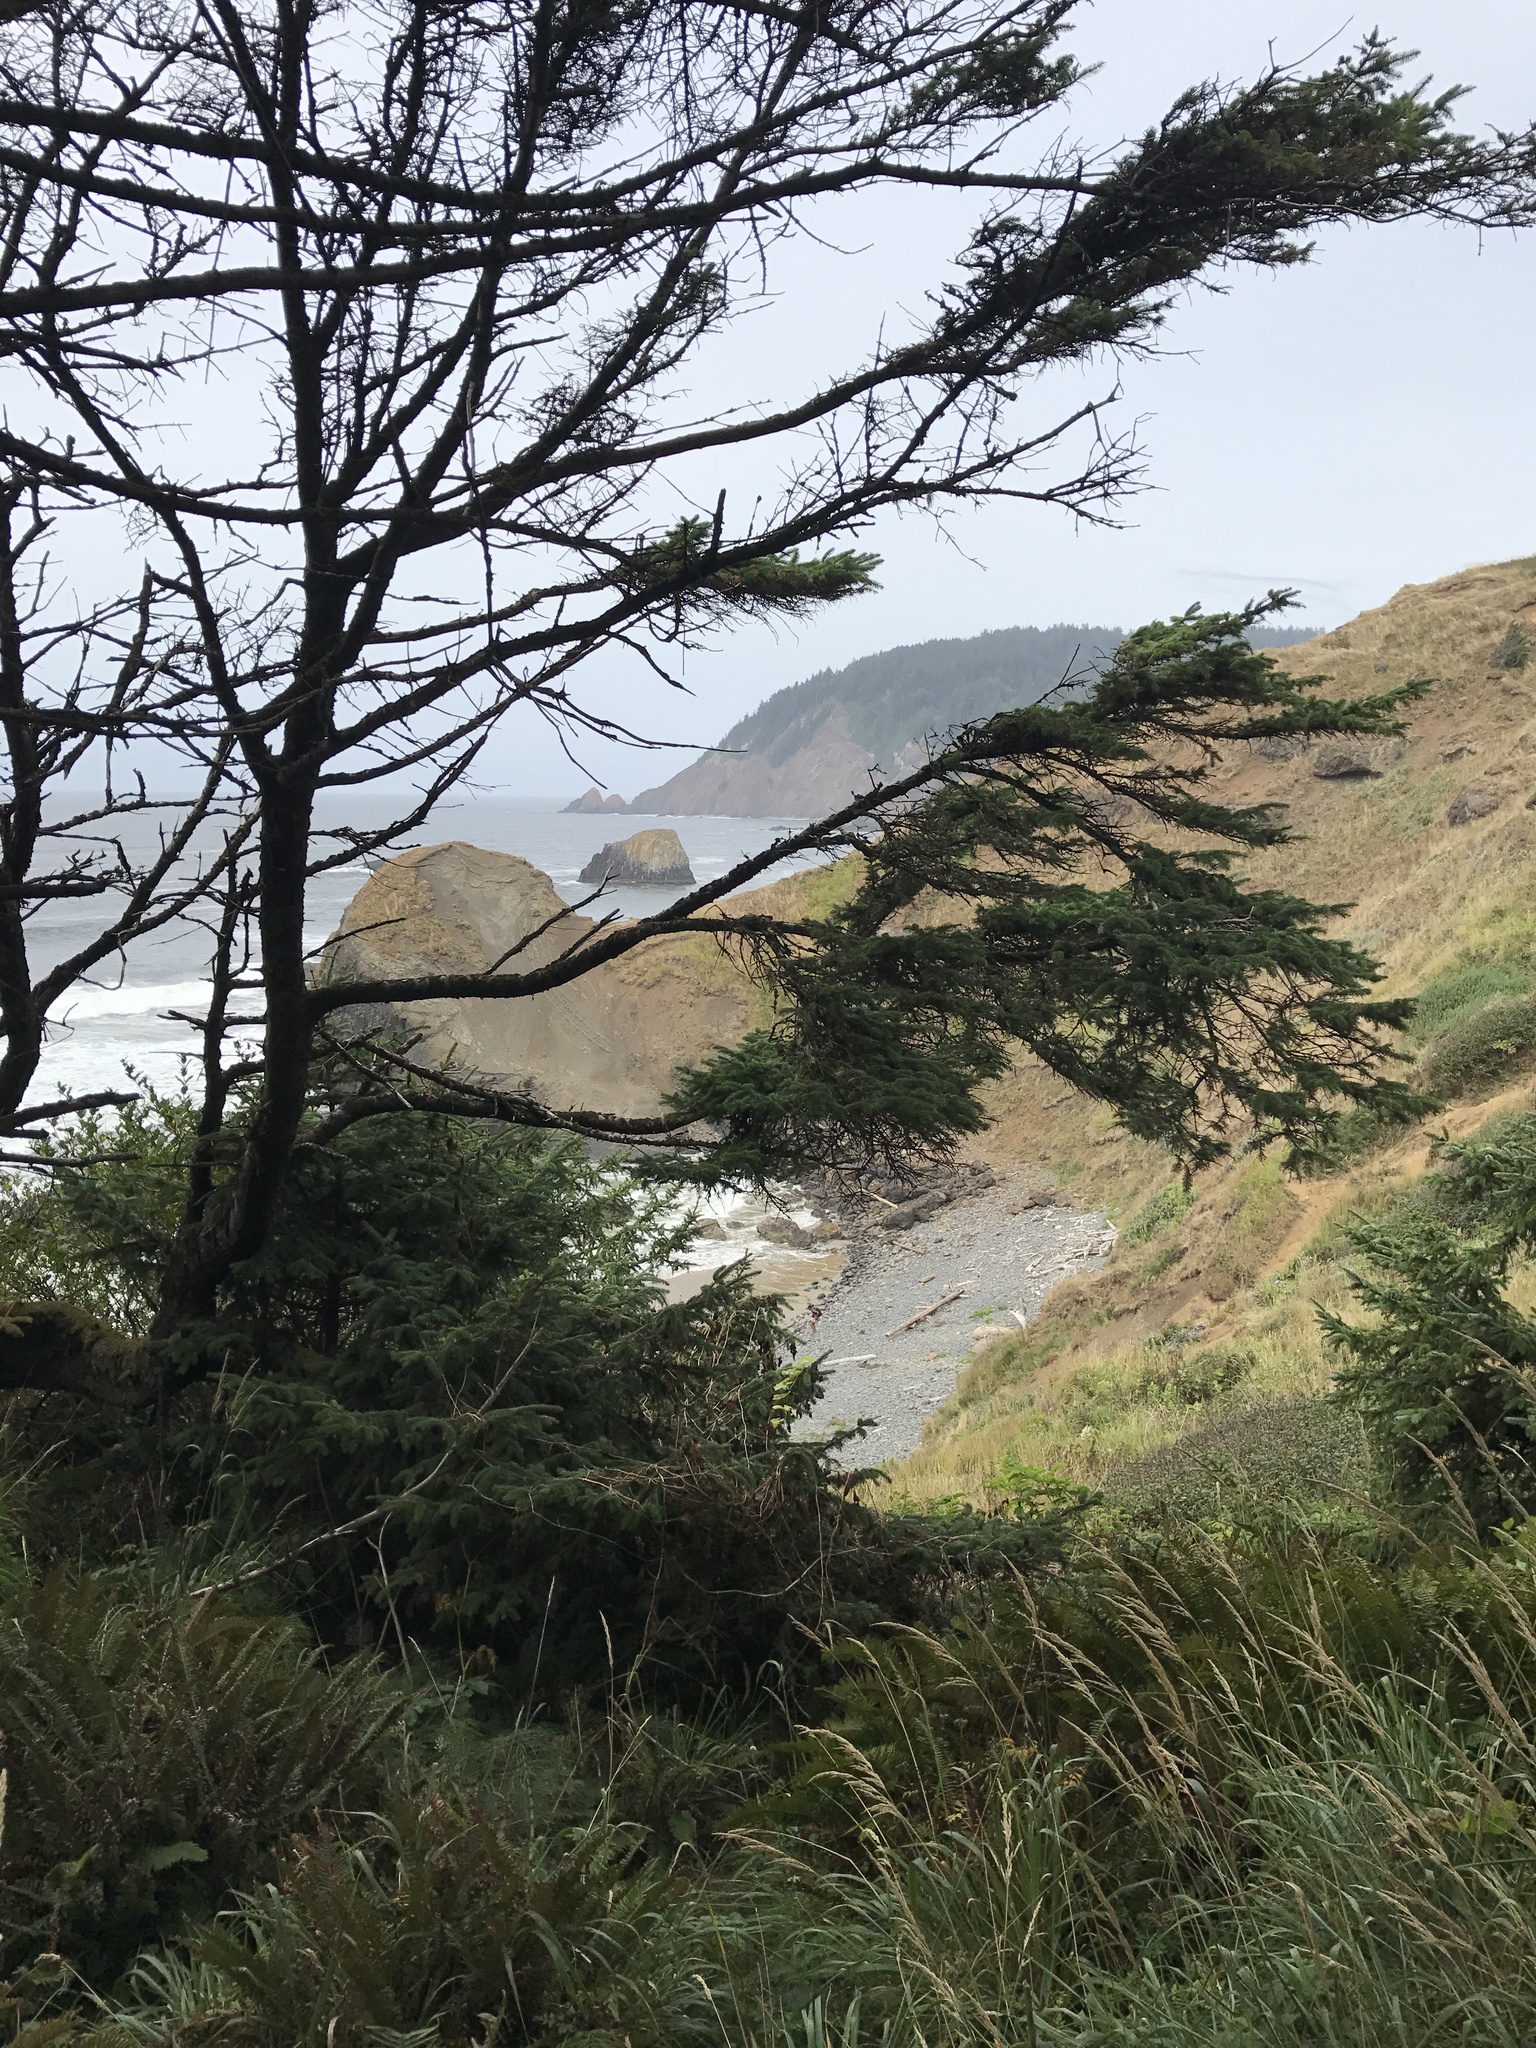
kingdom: Plantae
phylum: Tracheophyta
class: Pinopsida
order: Pinales
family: Pinaceae
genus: Picea
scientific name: Picea sitchensis
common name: Sitka spruce
